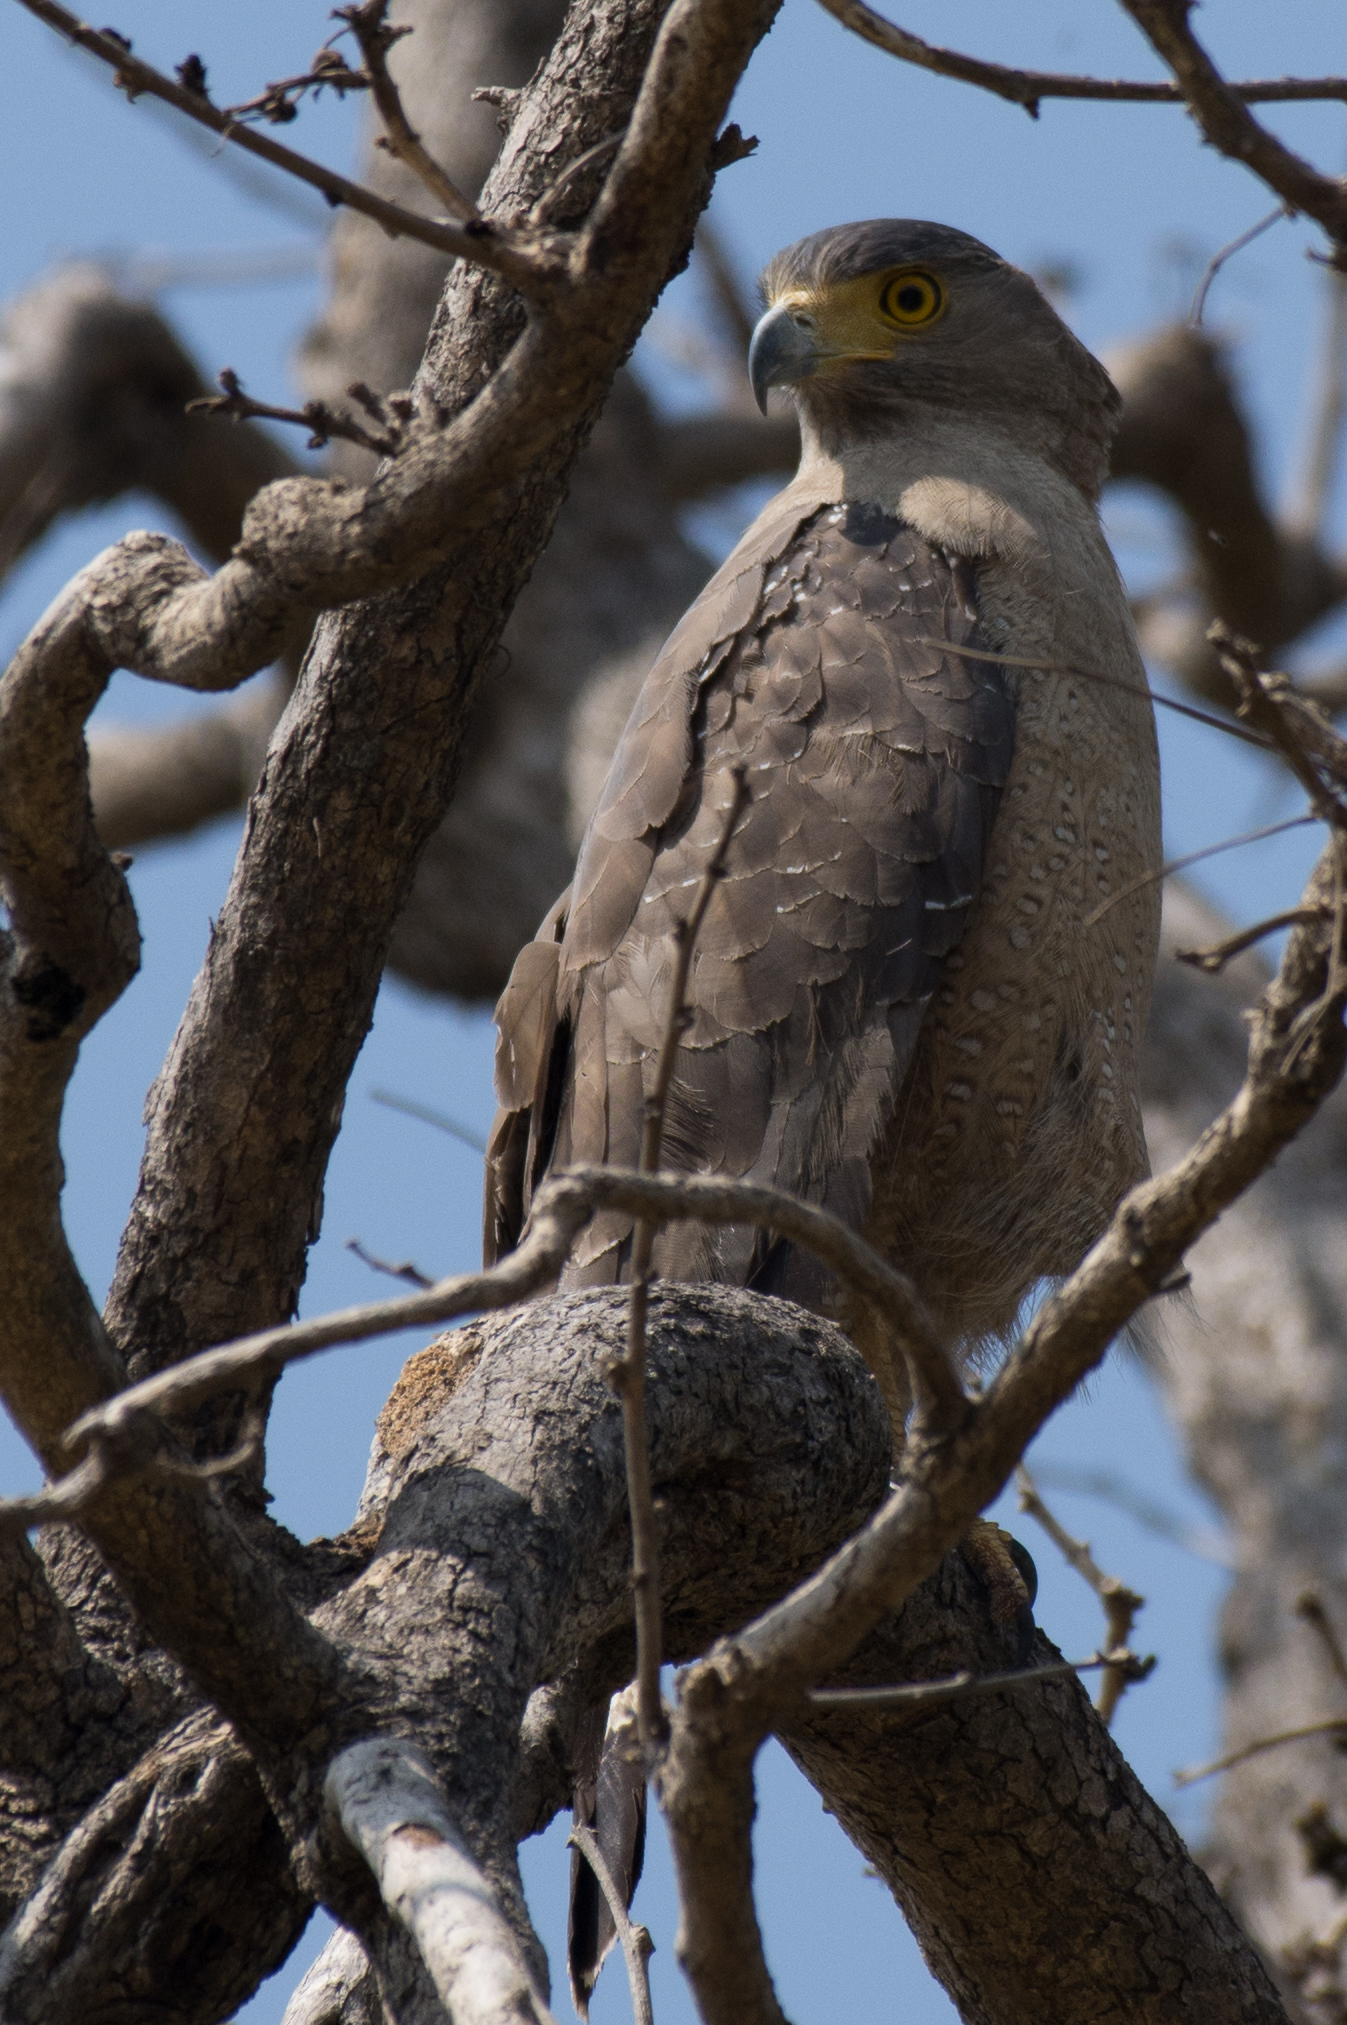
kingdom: Animalia
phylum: Chordata
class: Aves
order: Accipitriformes
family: Accipitridae
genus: Spilornis
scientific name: Spilornis cheela
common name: Crested serpent eagle
